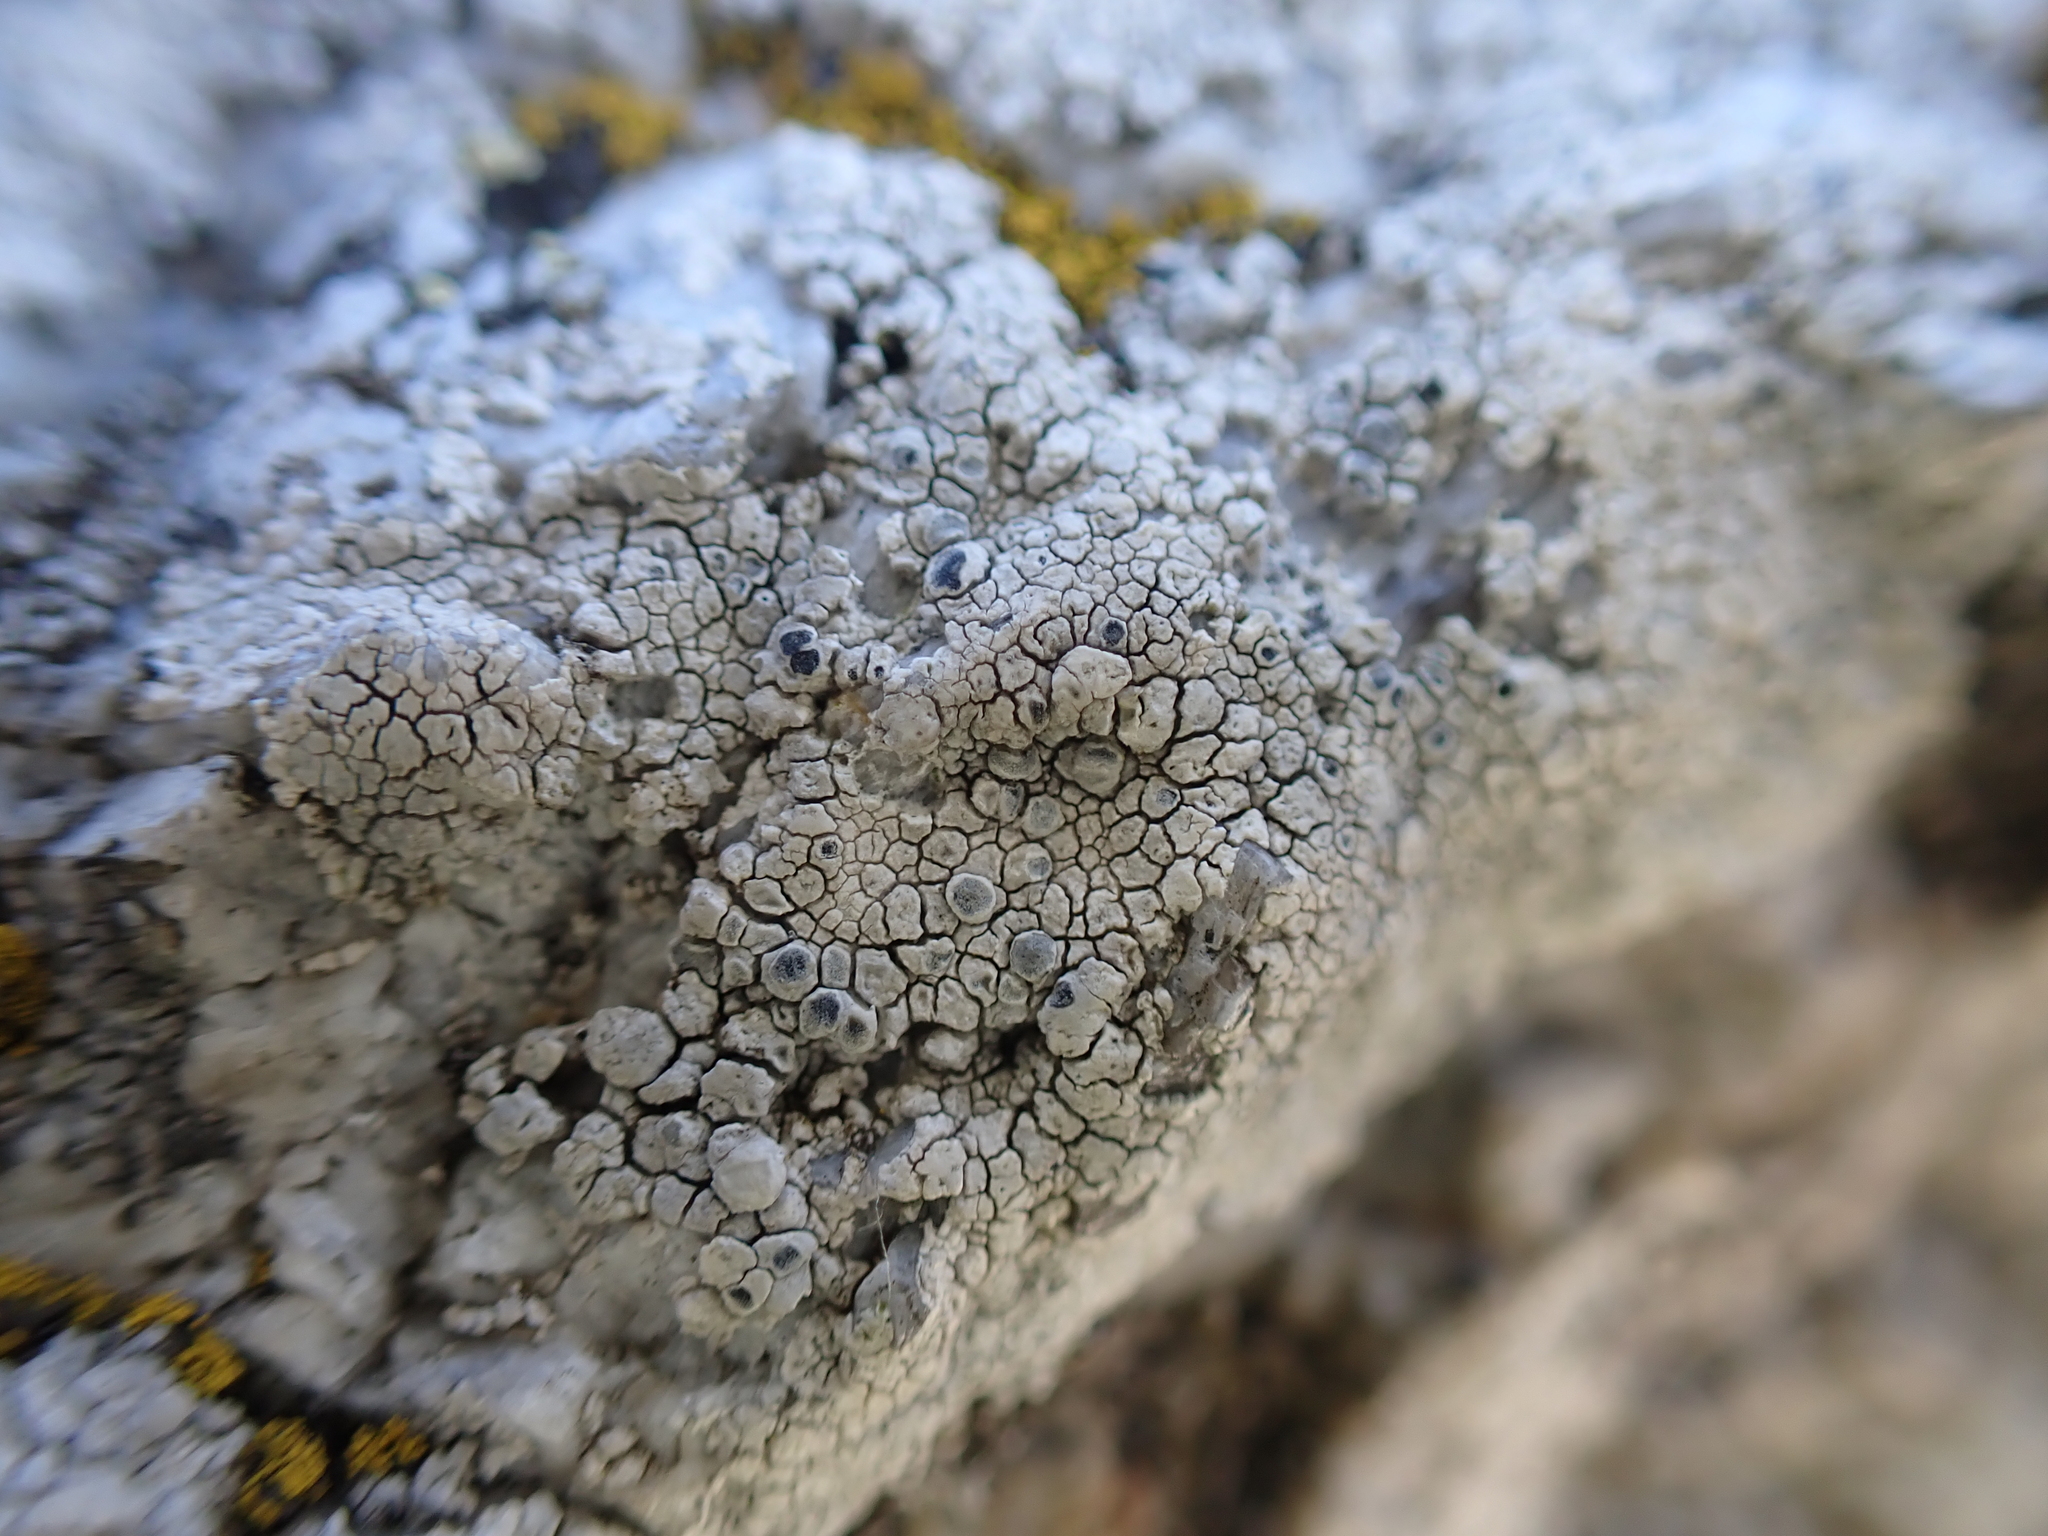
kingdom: Fungi
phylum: Ascomycota
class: Lecanoromycetes
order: Lecanorales
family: Lecanoraceae
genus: Glaucomaria
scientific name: Glaucomaria rupicola
